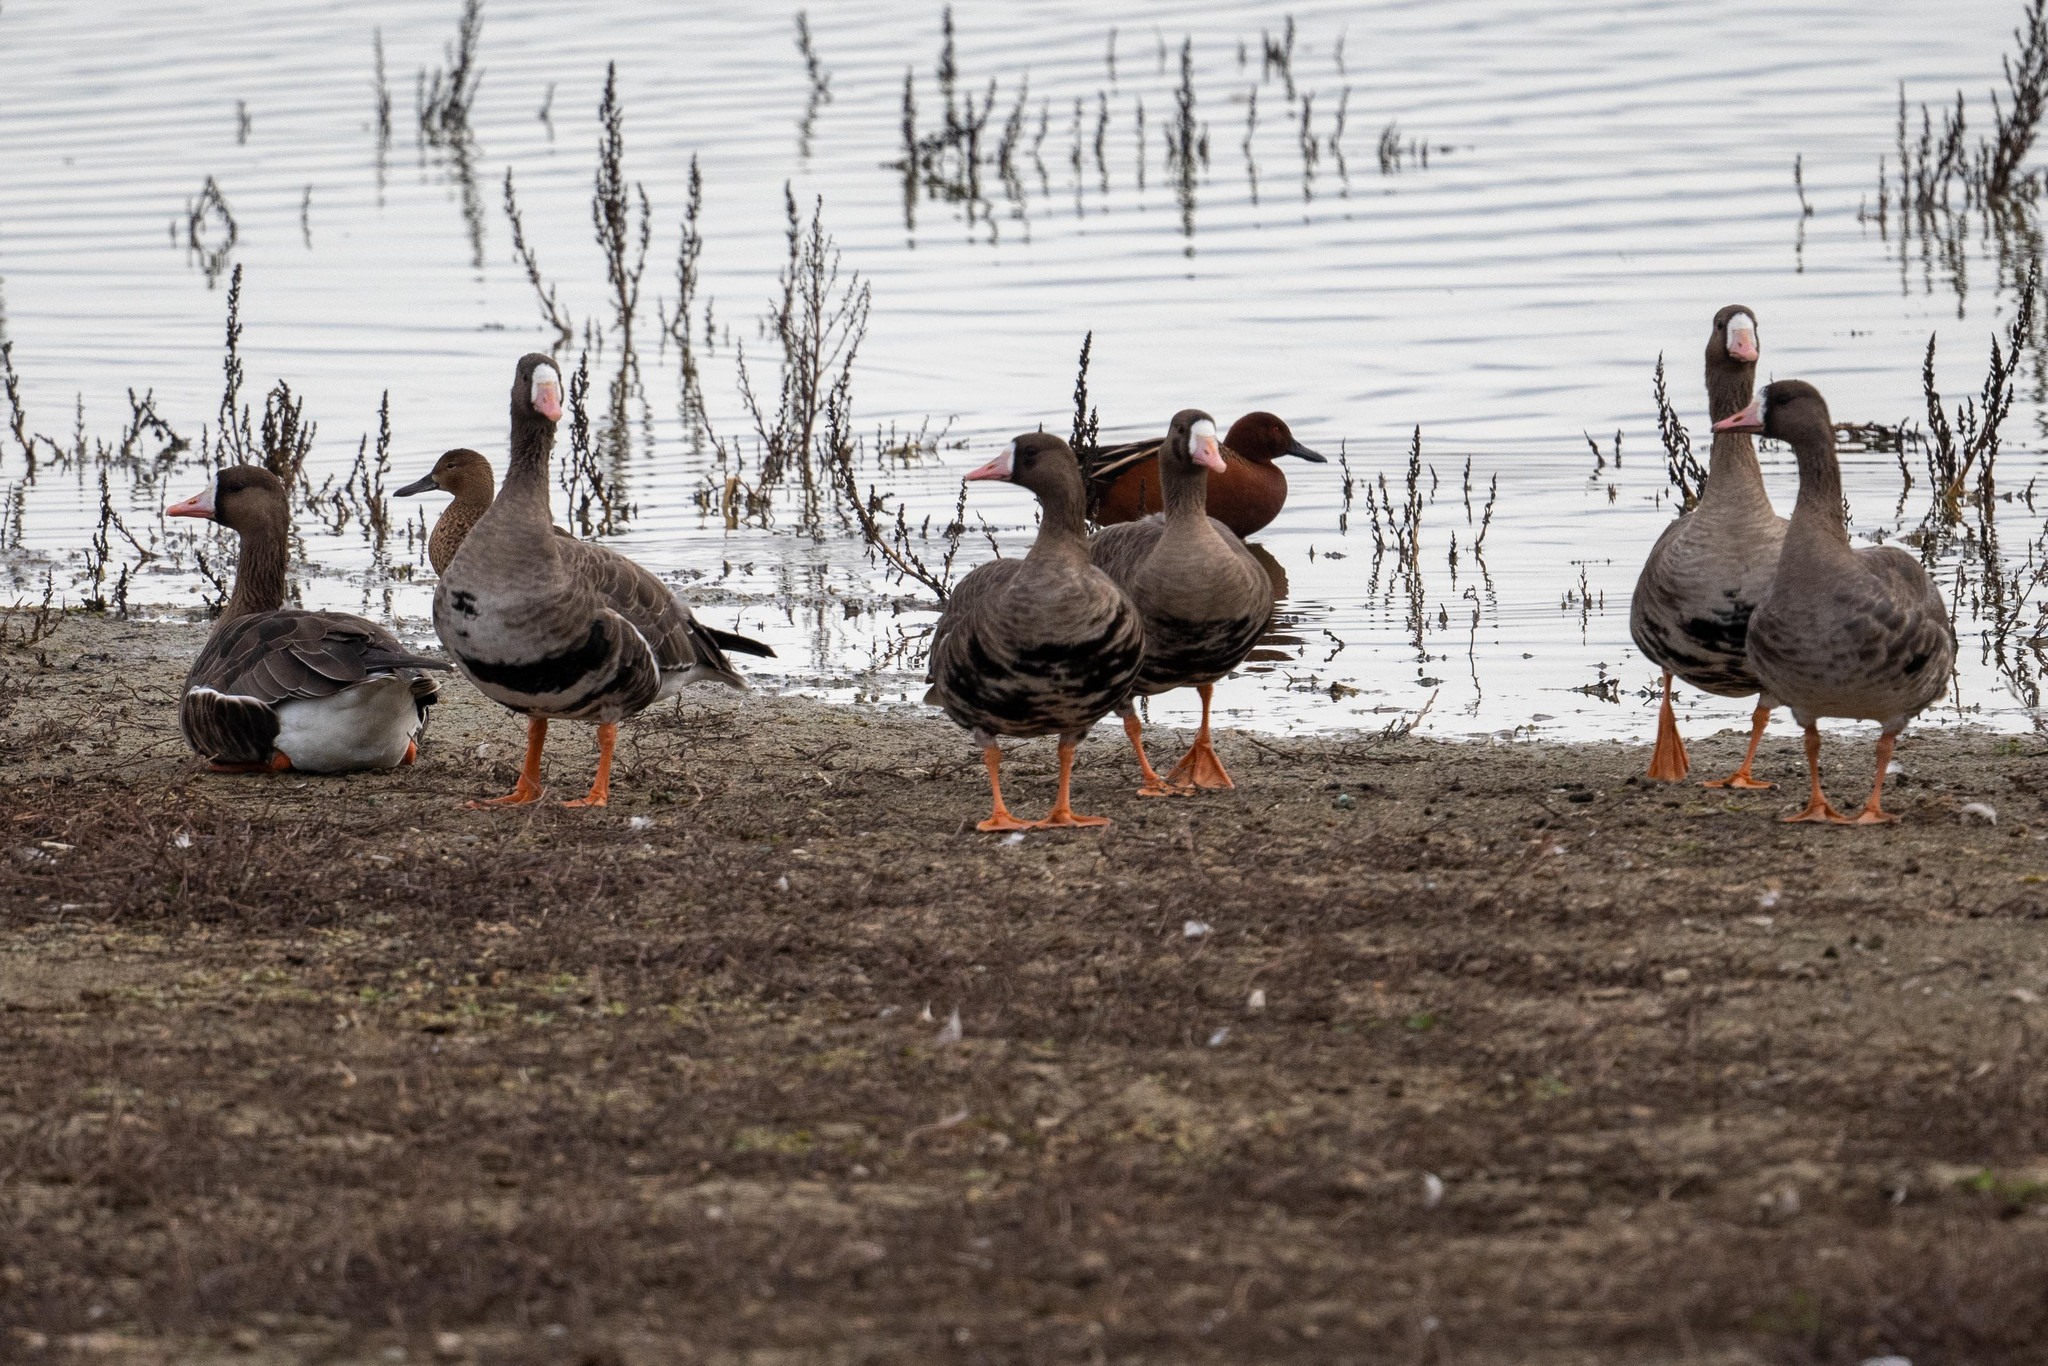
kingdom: Animalia
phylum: Chordata
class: Aves
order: Anseriformes
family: Anatidae
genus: Anser
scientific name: Anser albifrons
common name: Greater white-fronted goose
